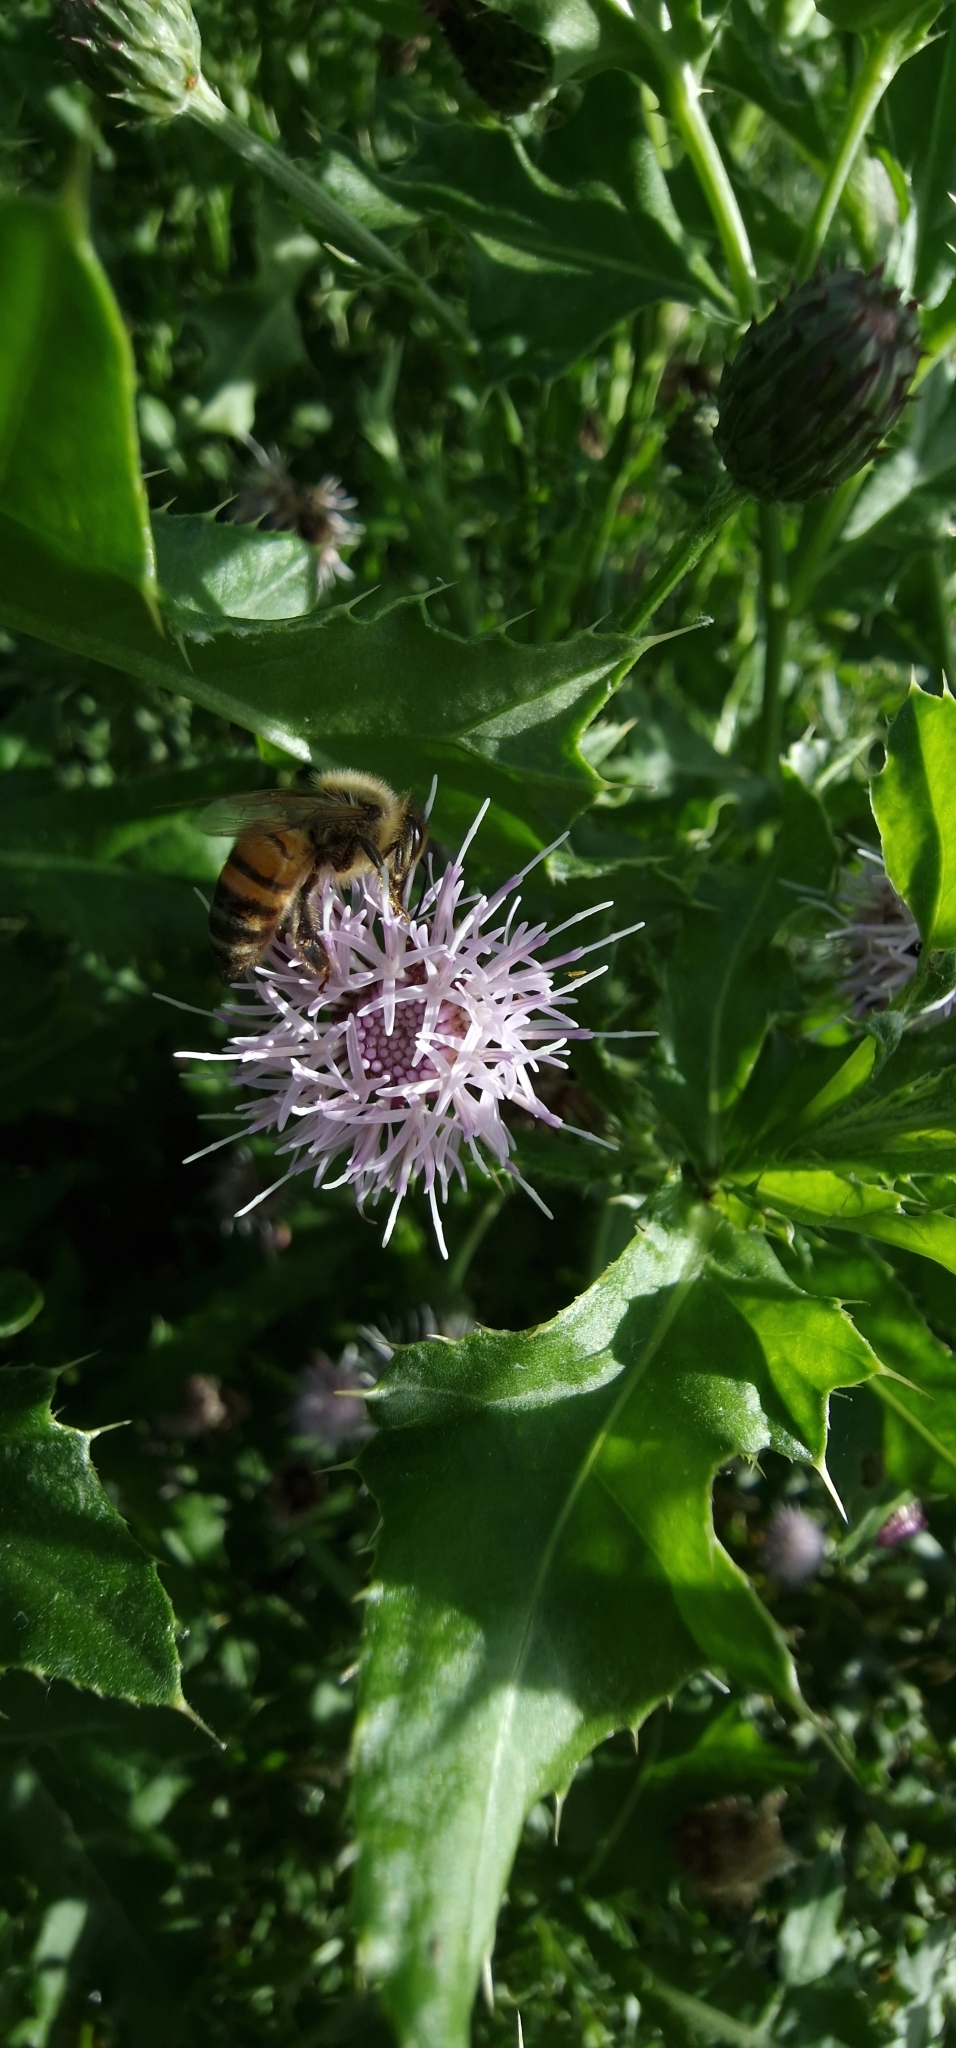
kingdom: Animalia
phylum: Arthropoda
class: Insecta
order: Hymenoptera
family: Apidae
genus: Apis
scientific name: Apis mellifera
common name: Honey bee
